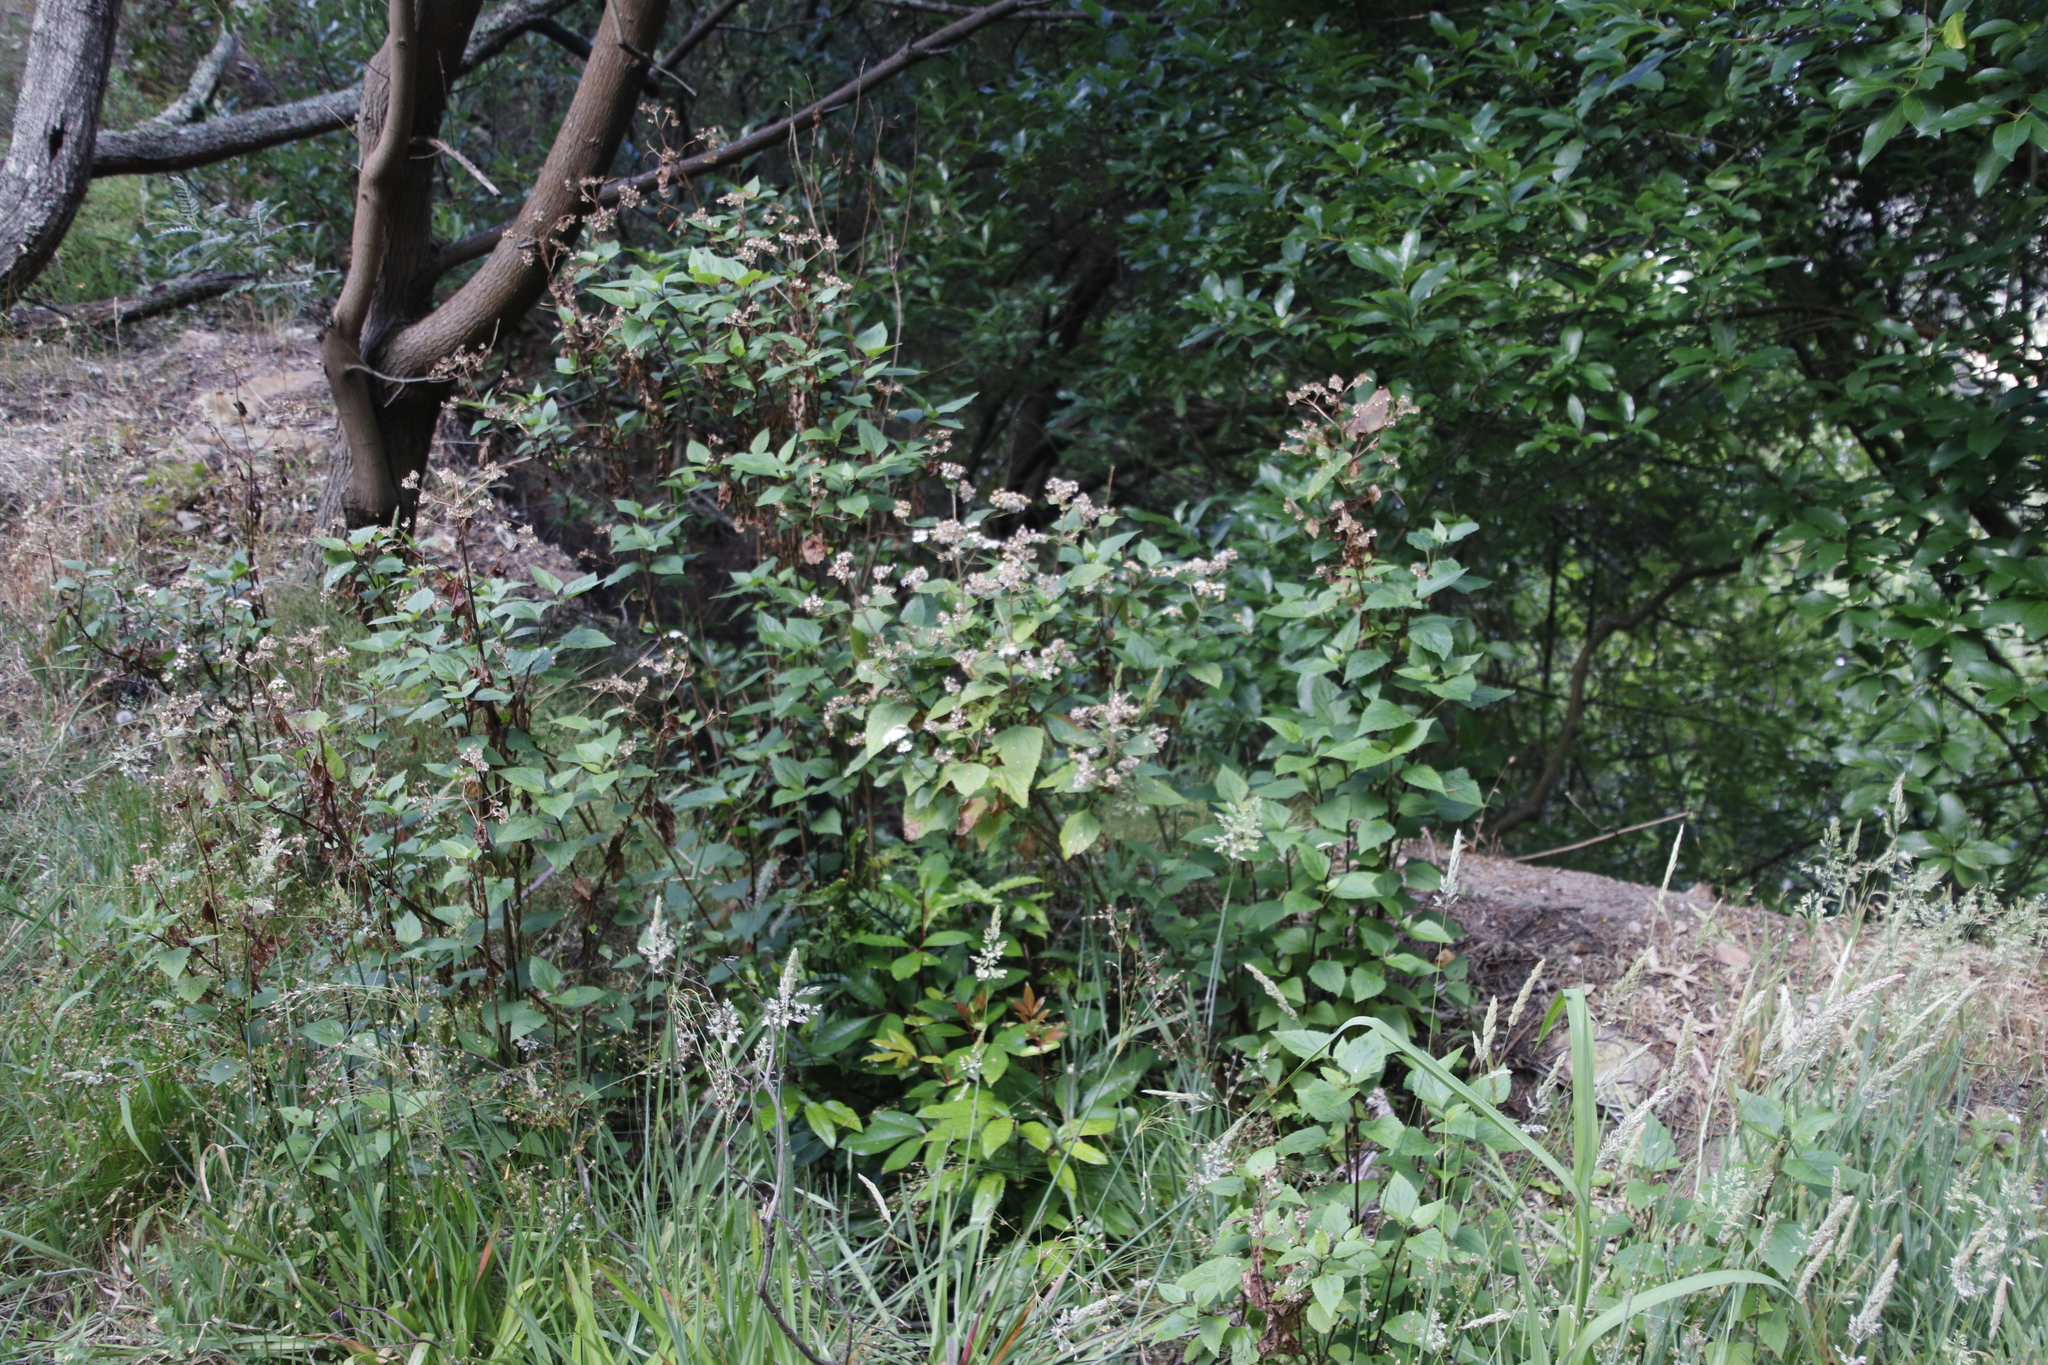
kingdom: Plantae
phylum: Tracheophyta
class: Magnoliopsida
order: Asterales
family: Asteraceae
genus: Ageratina
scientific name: Ageratina adenophora
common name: Sticky snakeroot
